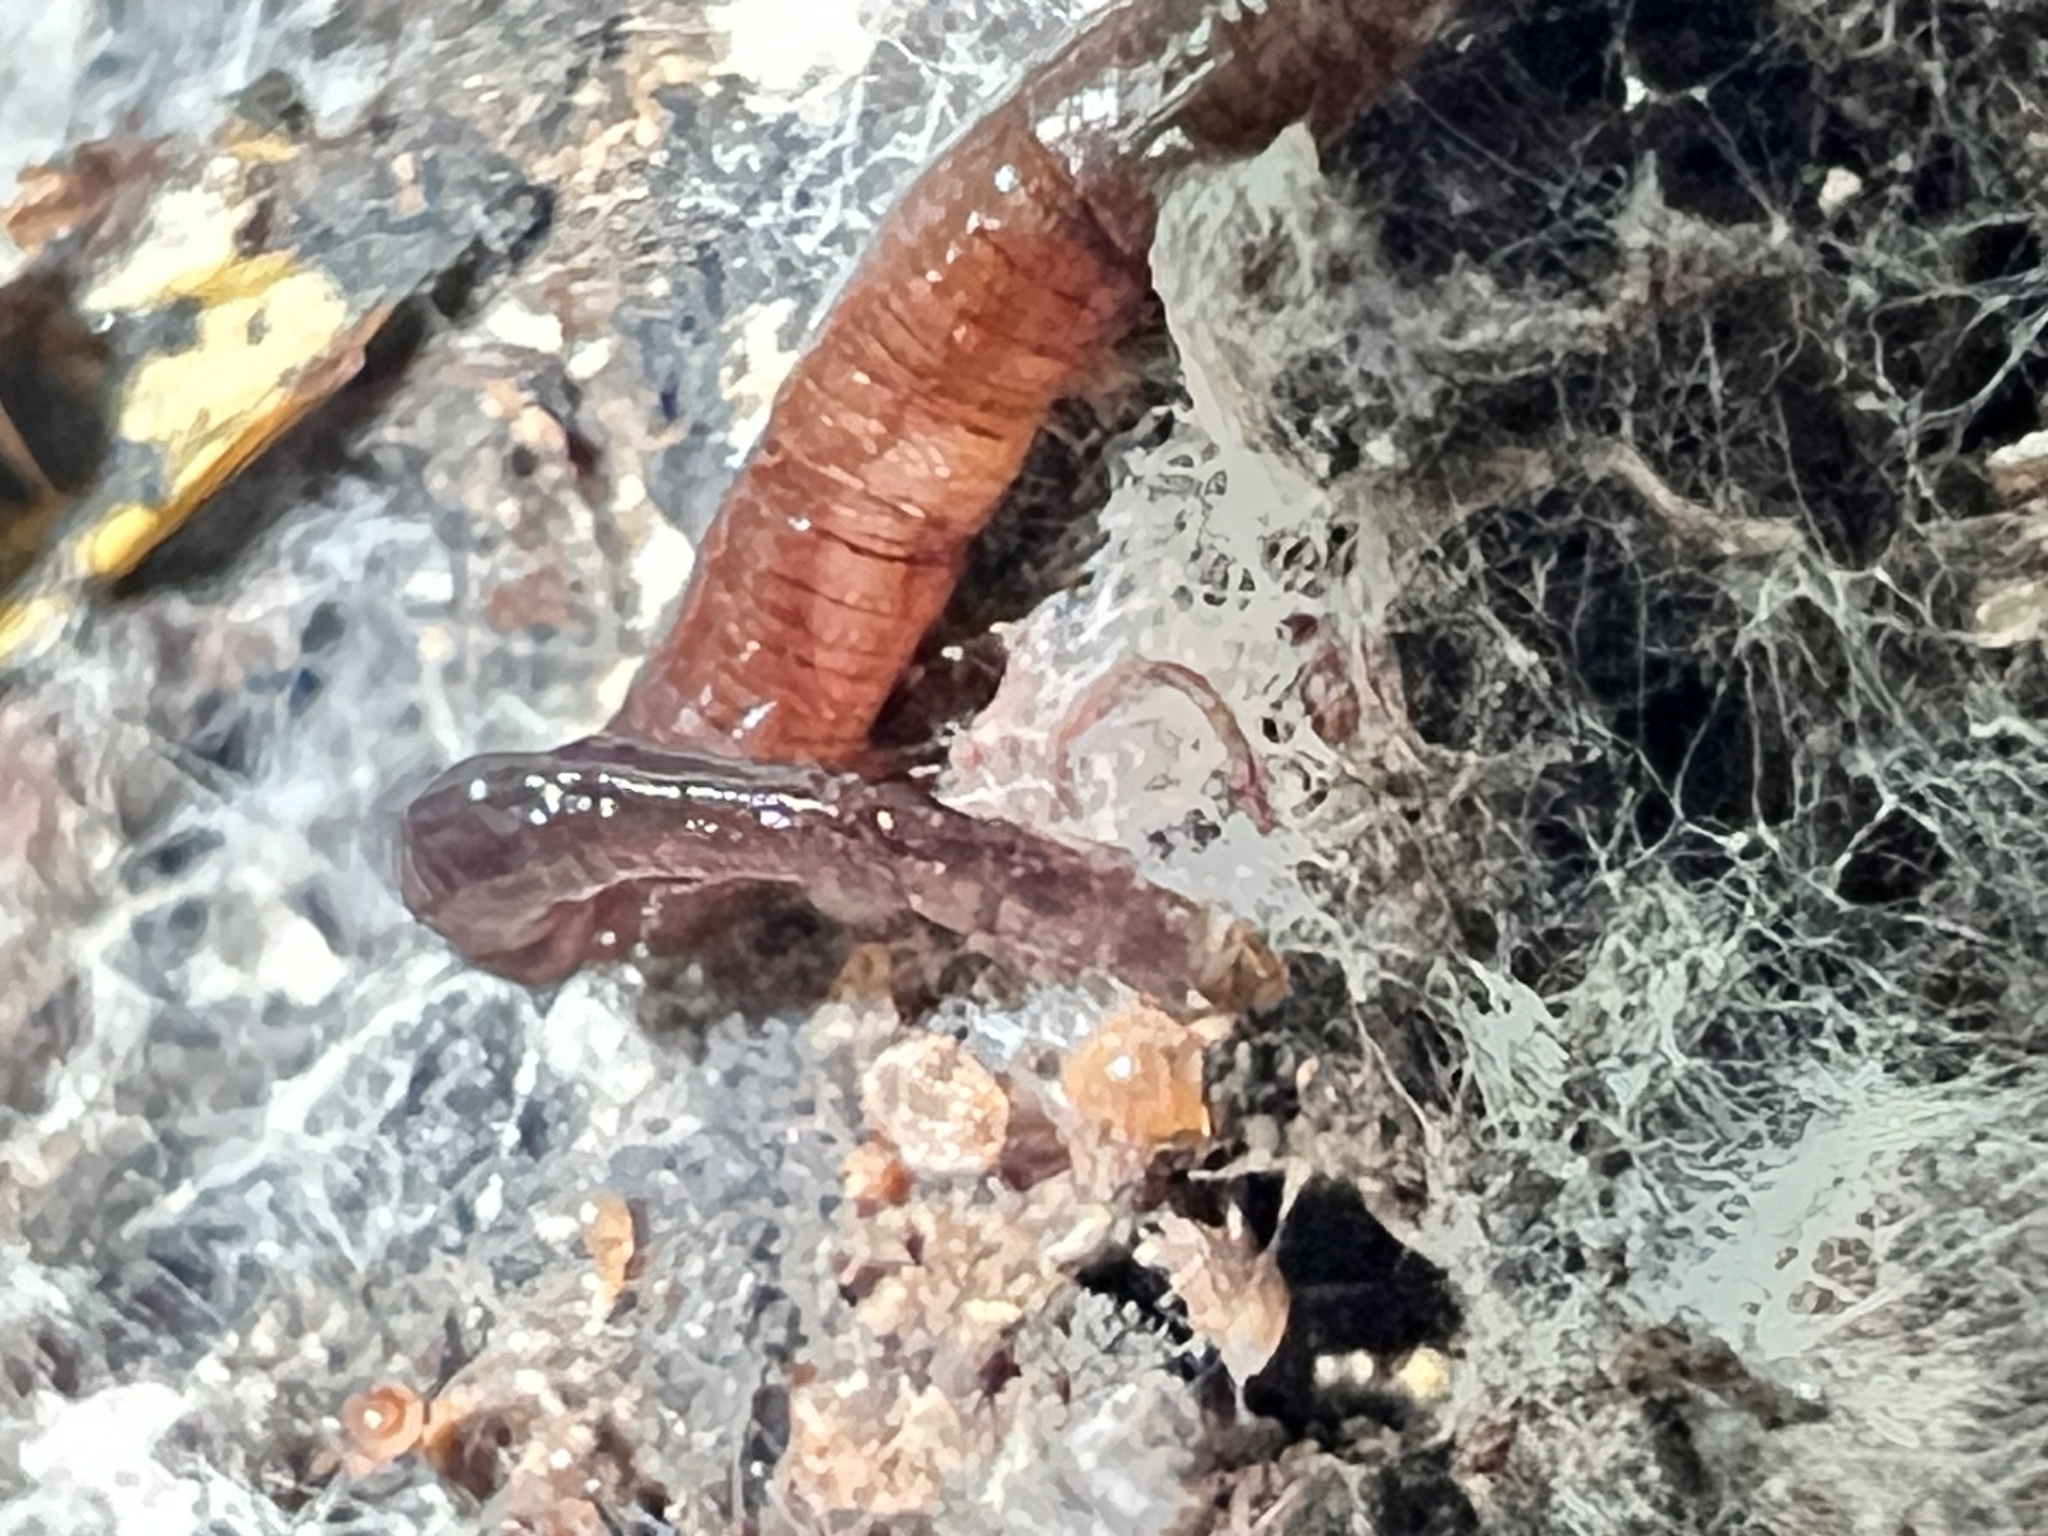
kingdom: Animalia
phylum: Platyhelminthes
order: Tricladida
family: Geoplanidae
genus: Parakontikia
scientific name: Parakontikia ventrolineata
